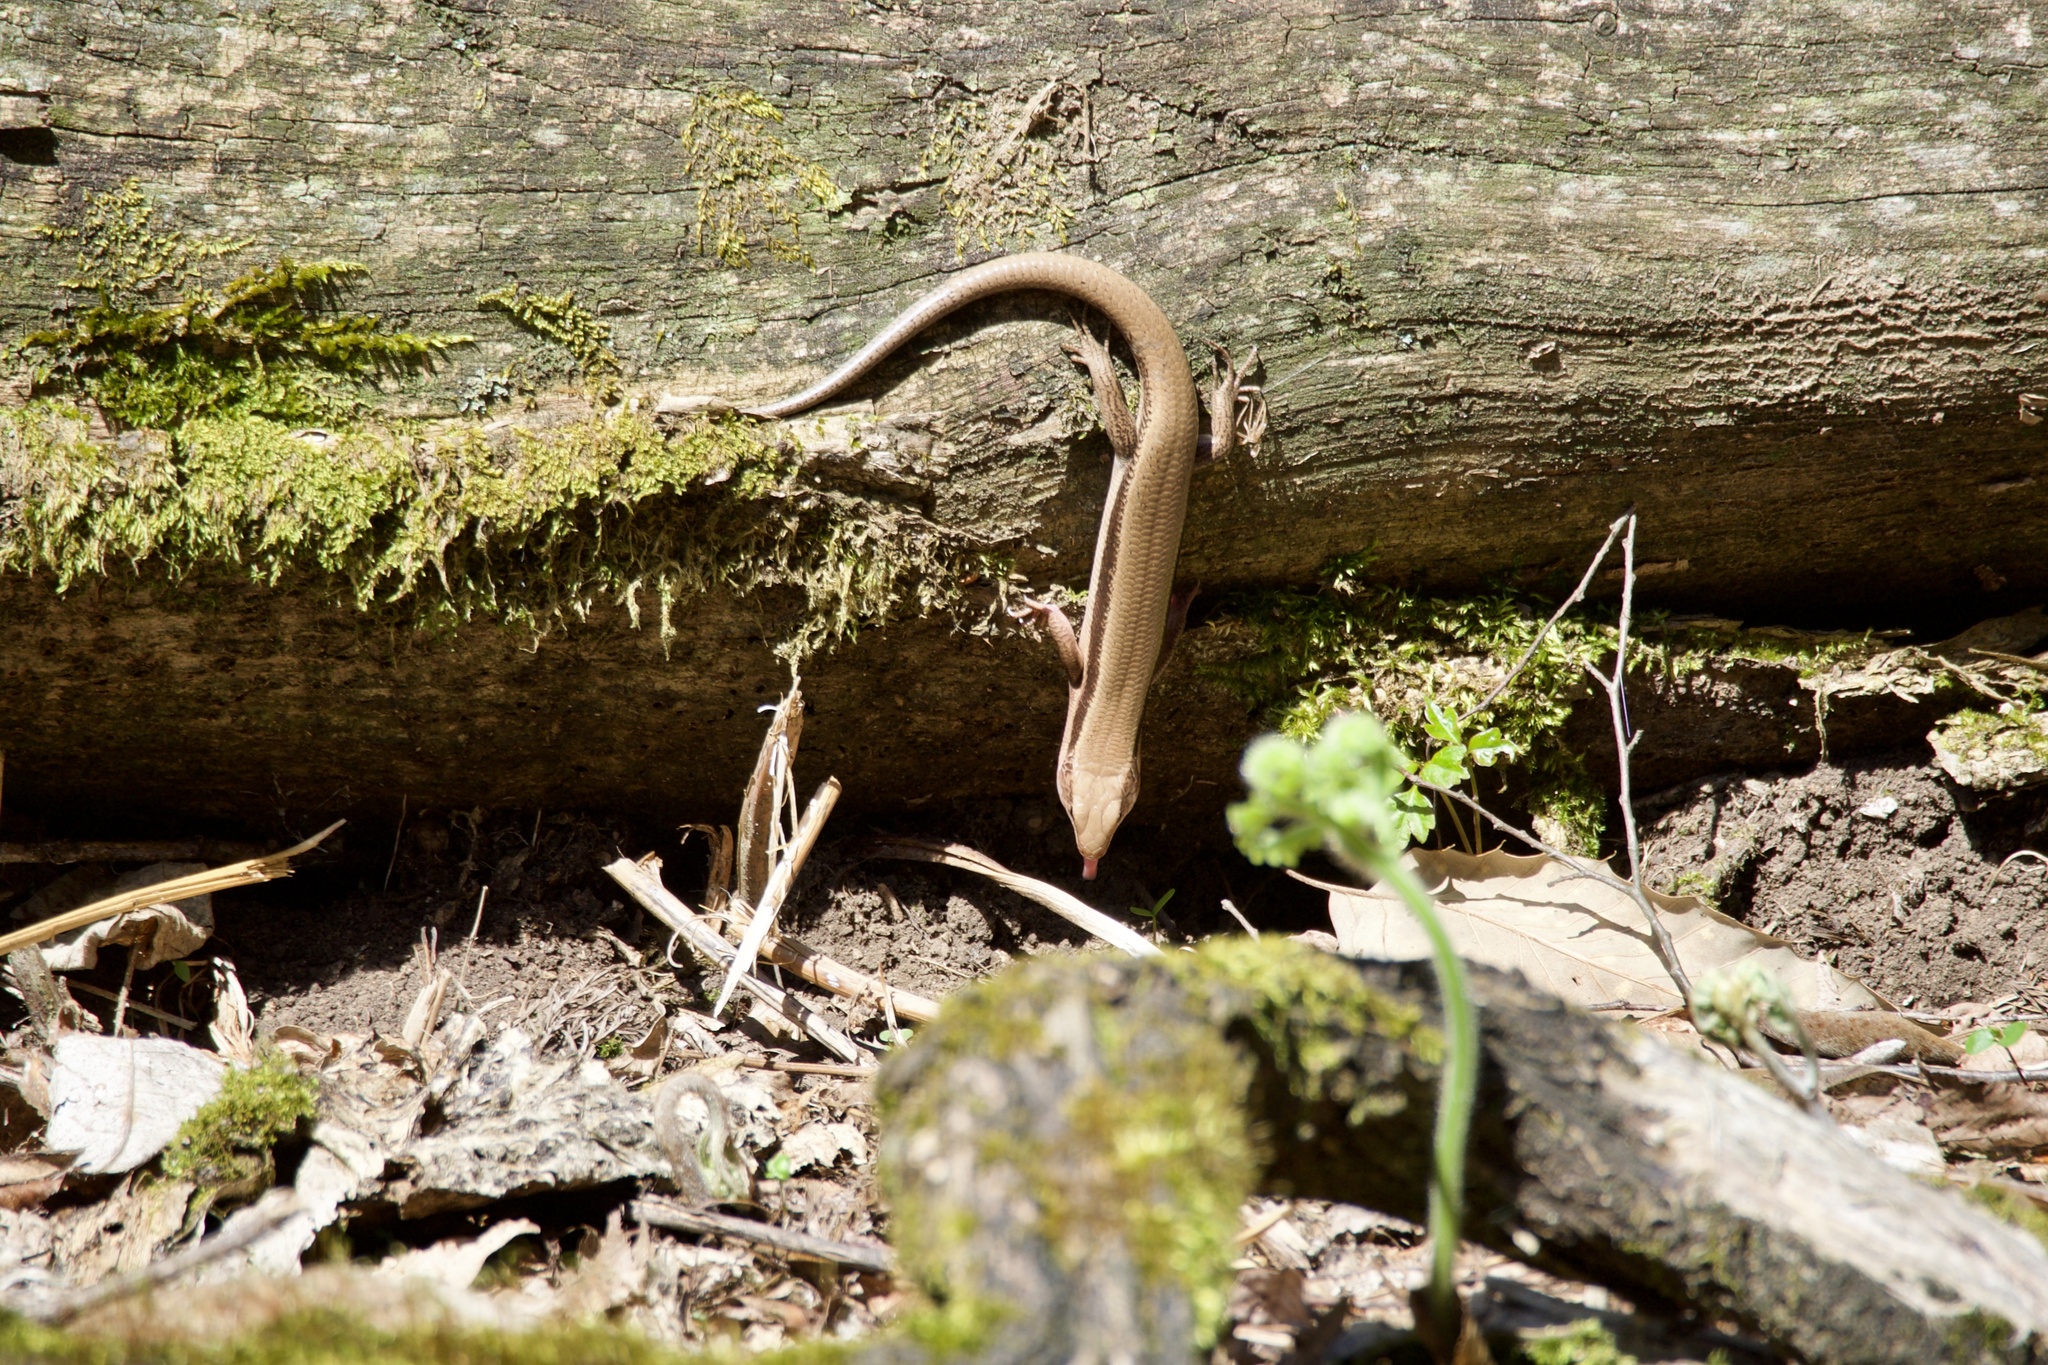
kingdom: Animalia
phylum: Chordata
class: Squamata
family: Scincidae
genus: Plestiodon
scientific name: Plestiodon japonicus
